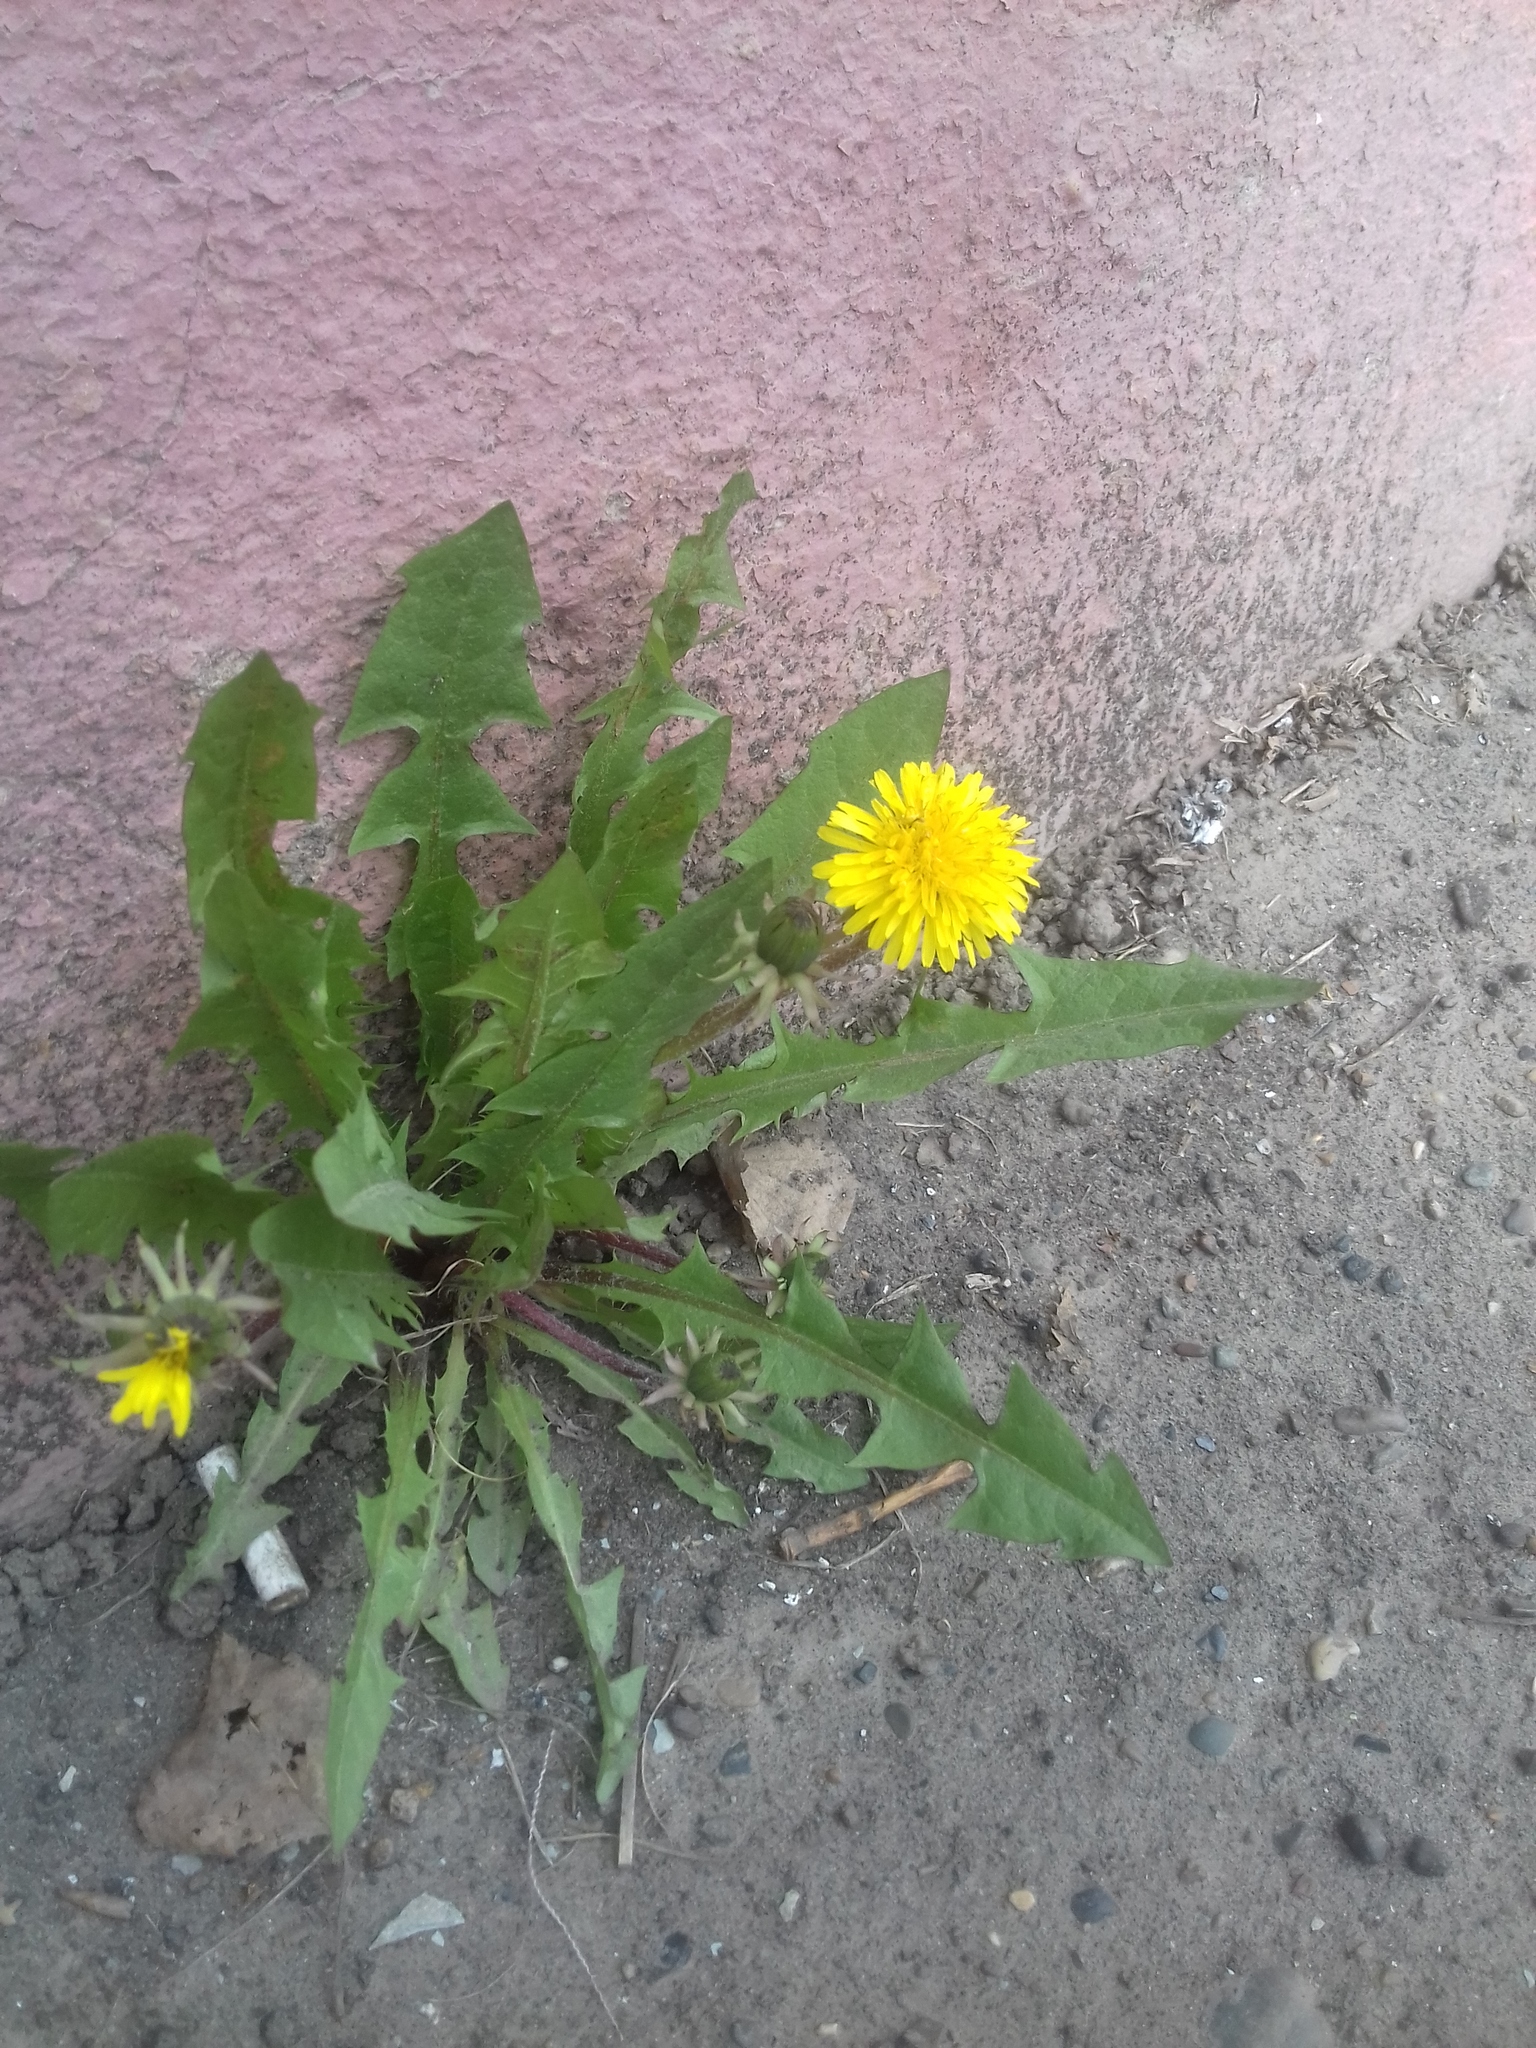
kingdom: Plantae
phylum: Tracheophyta
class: Magnoliopsida
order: Asterales
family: Asteraceae
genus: Taraxacum
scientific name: Taraxacum officinale
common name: Common dandelion
